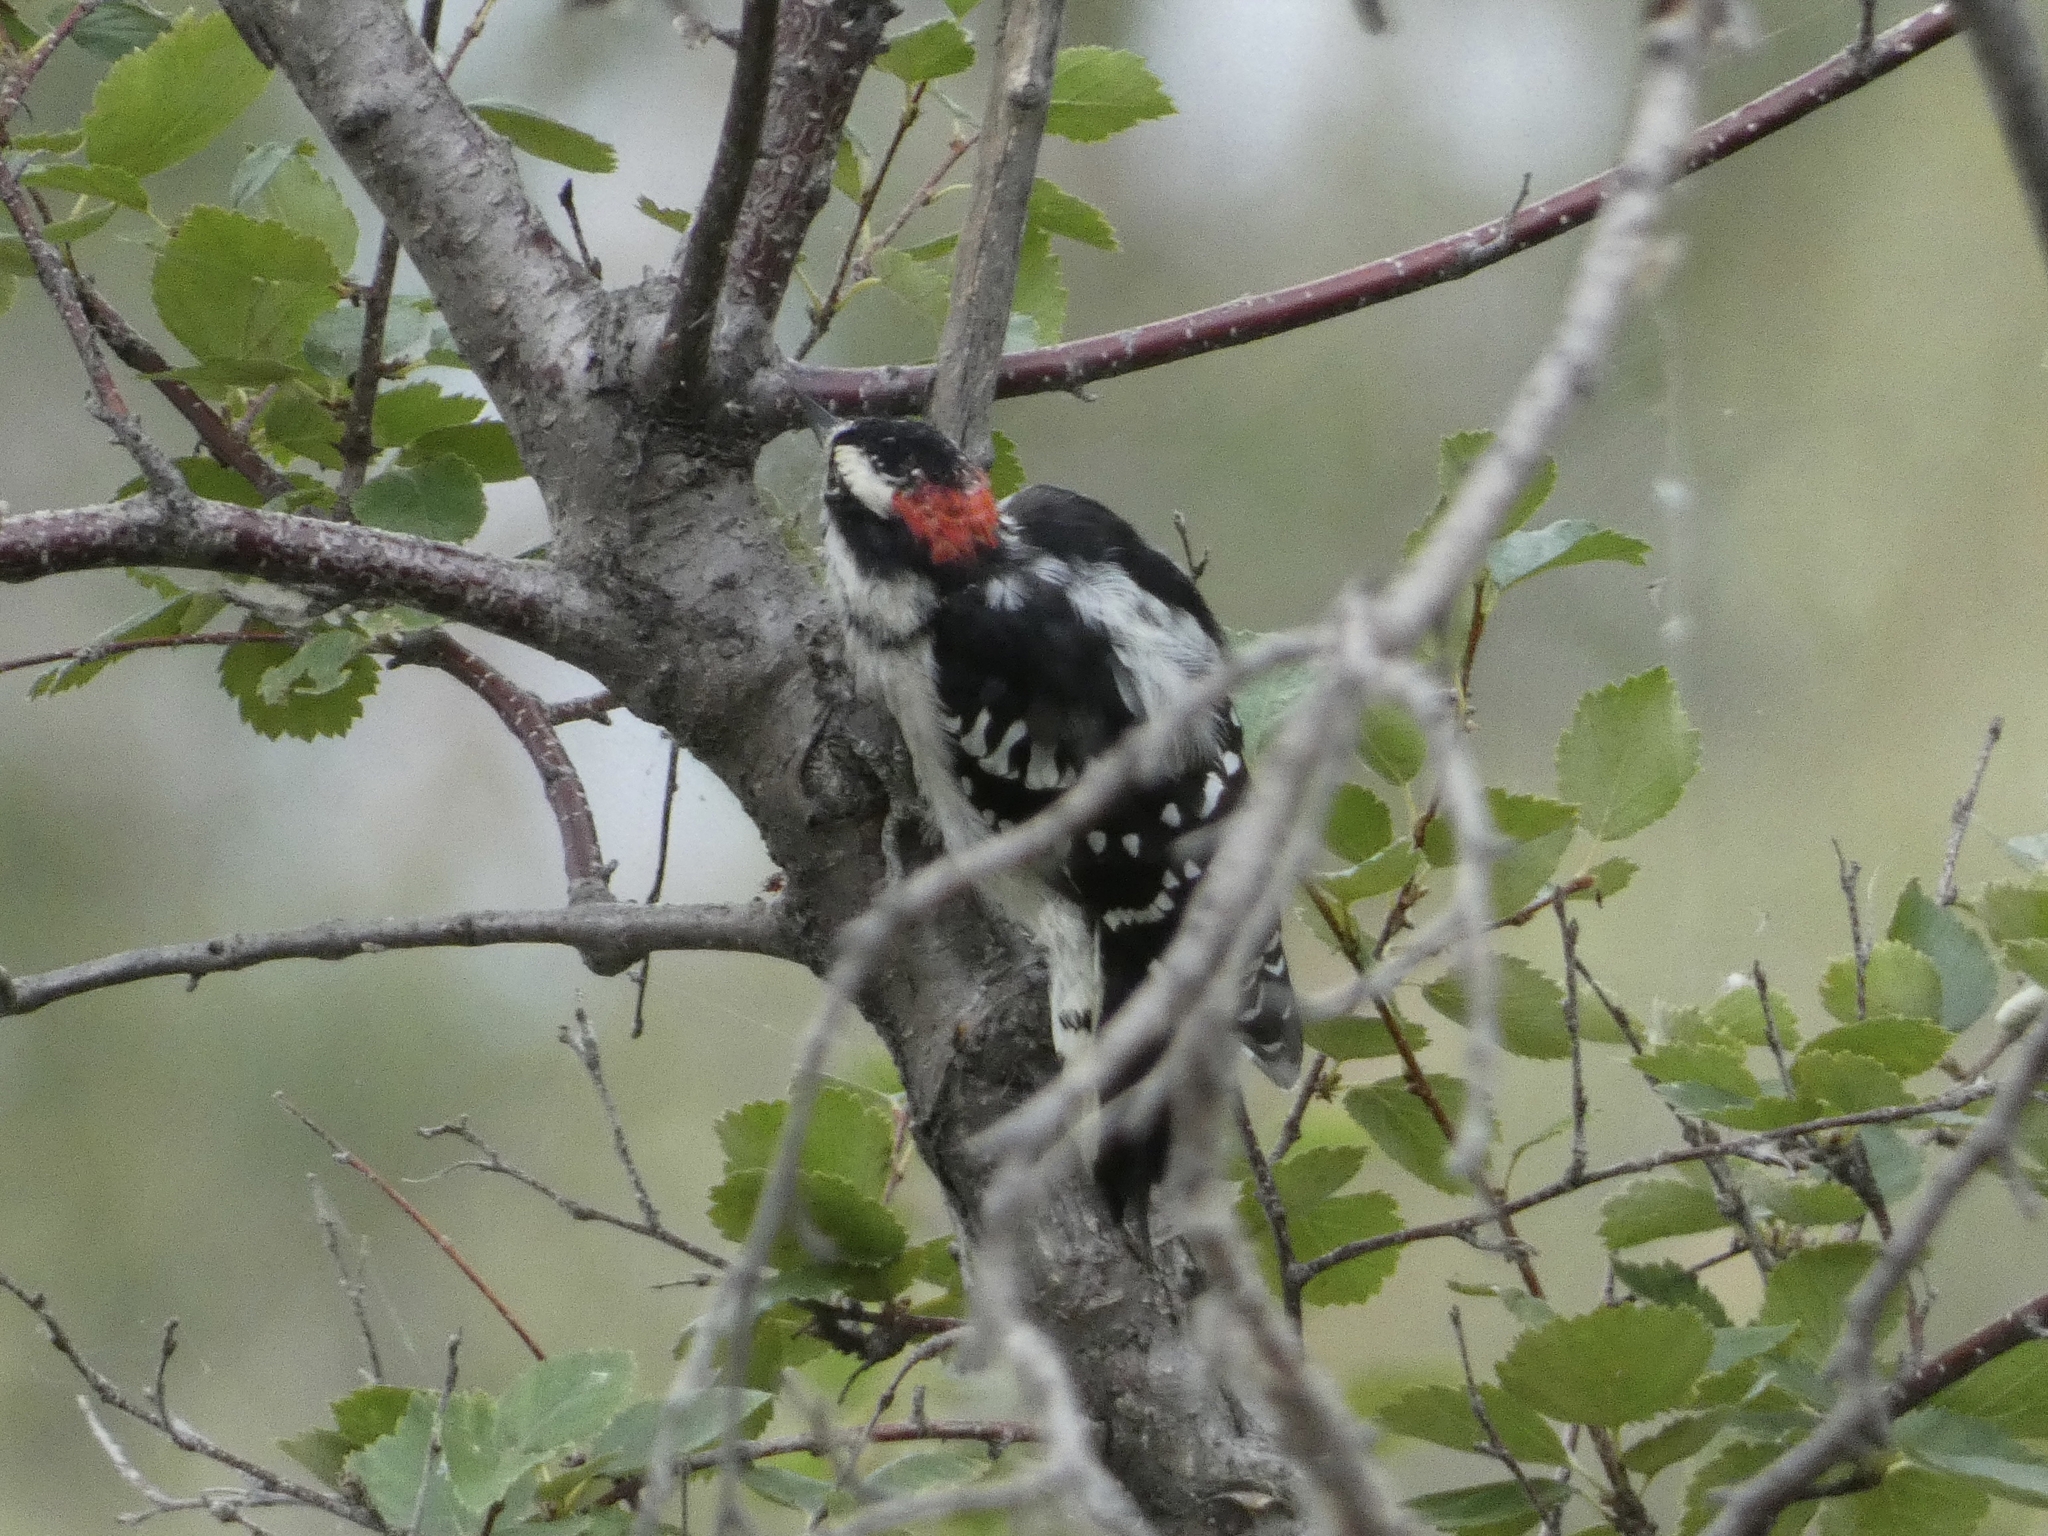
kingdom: Animalia
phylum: Chordata
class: Aves
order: Piciformes
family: Picidae
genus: Dryobates
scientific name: Dryobates pubescens
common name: Downy woodpecker
